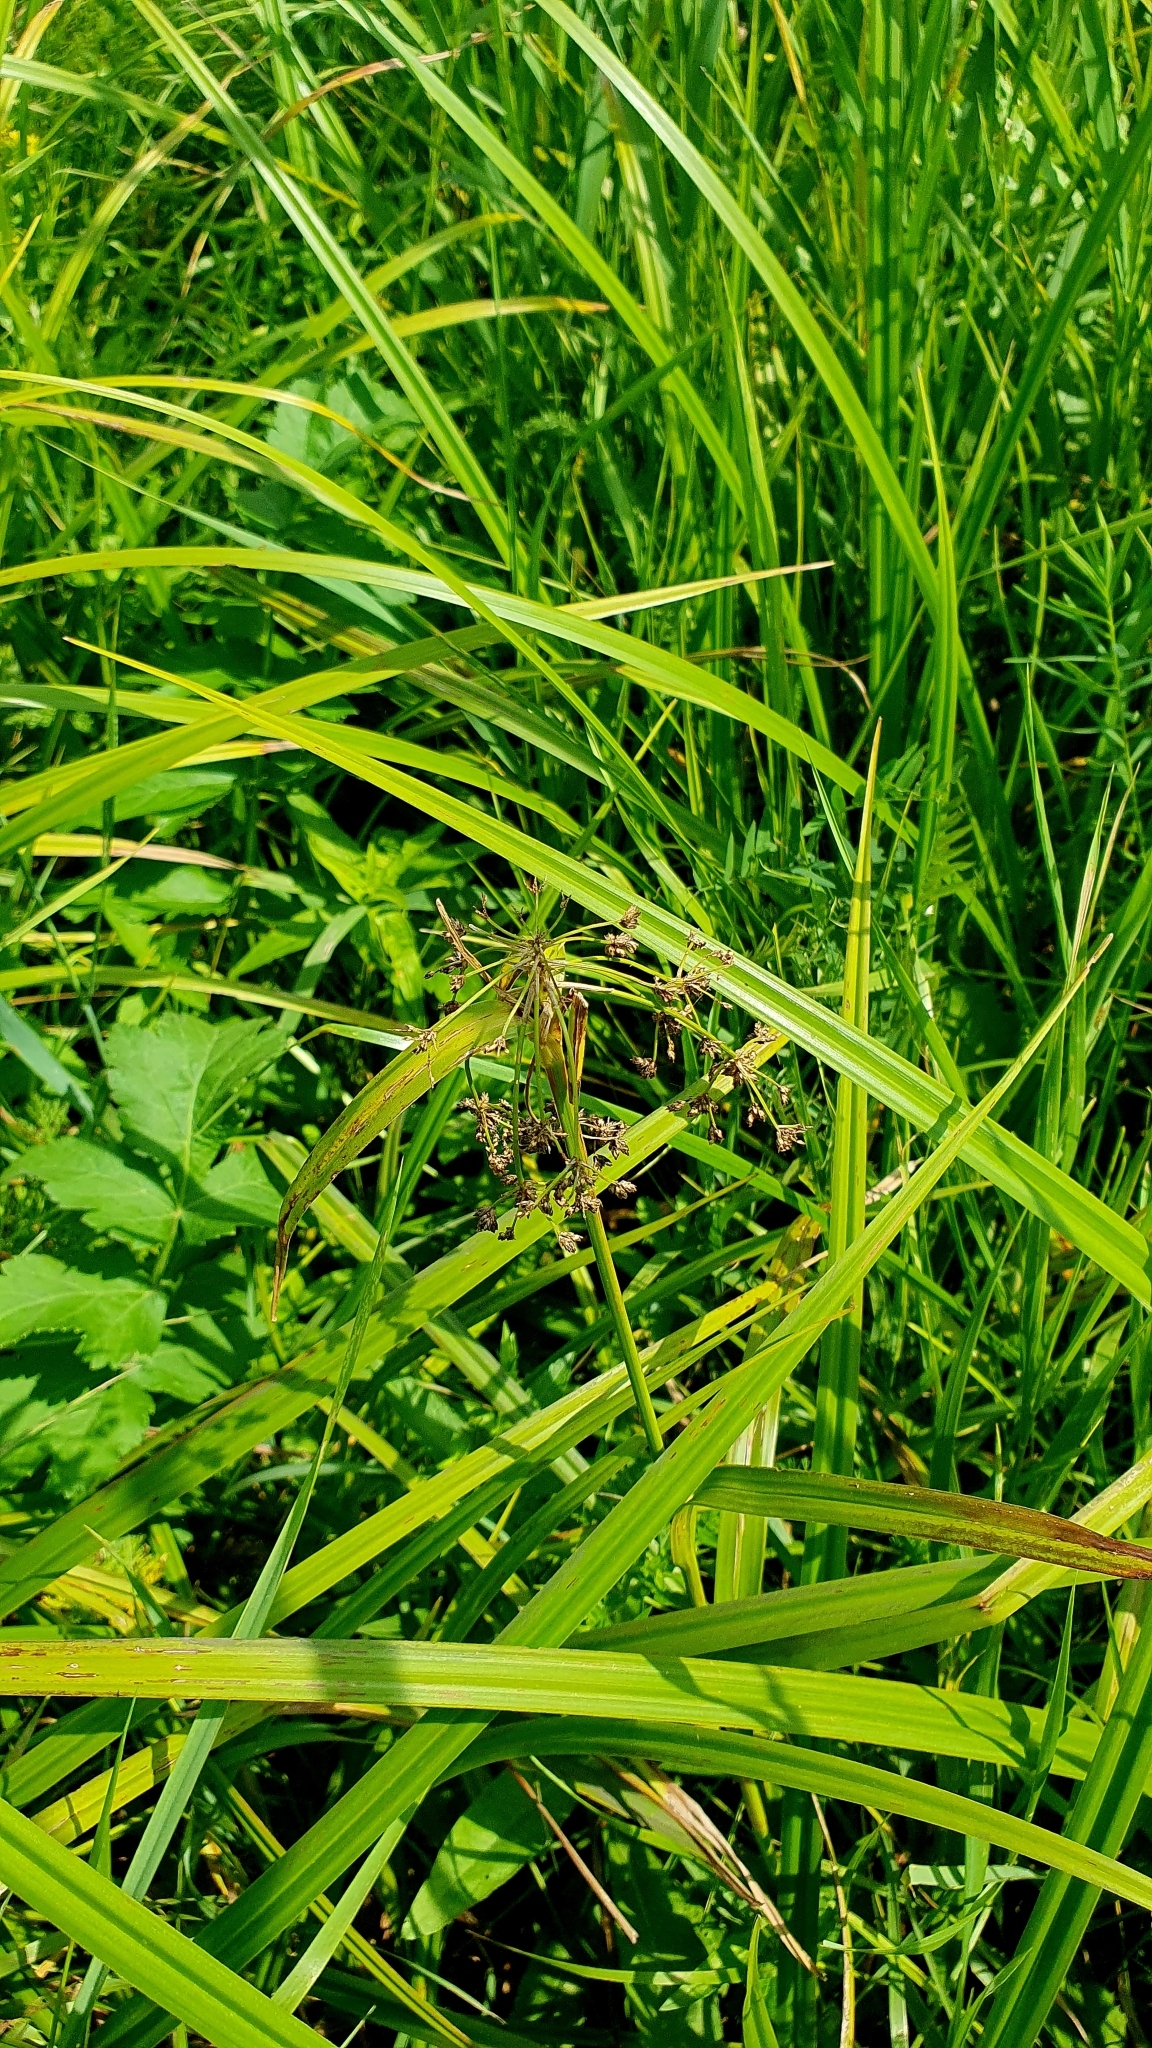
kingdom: Plantae
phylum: Tracheophyta
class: Liliopsida
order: Poales
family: Cyperaceae
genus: Scirpus
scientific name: Scirpus sylvaticus
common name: Wood club-rush
